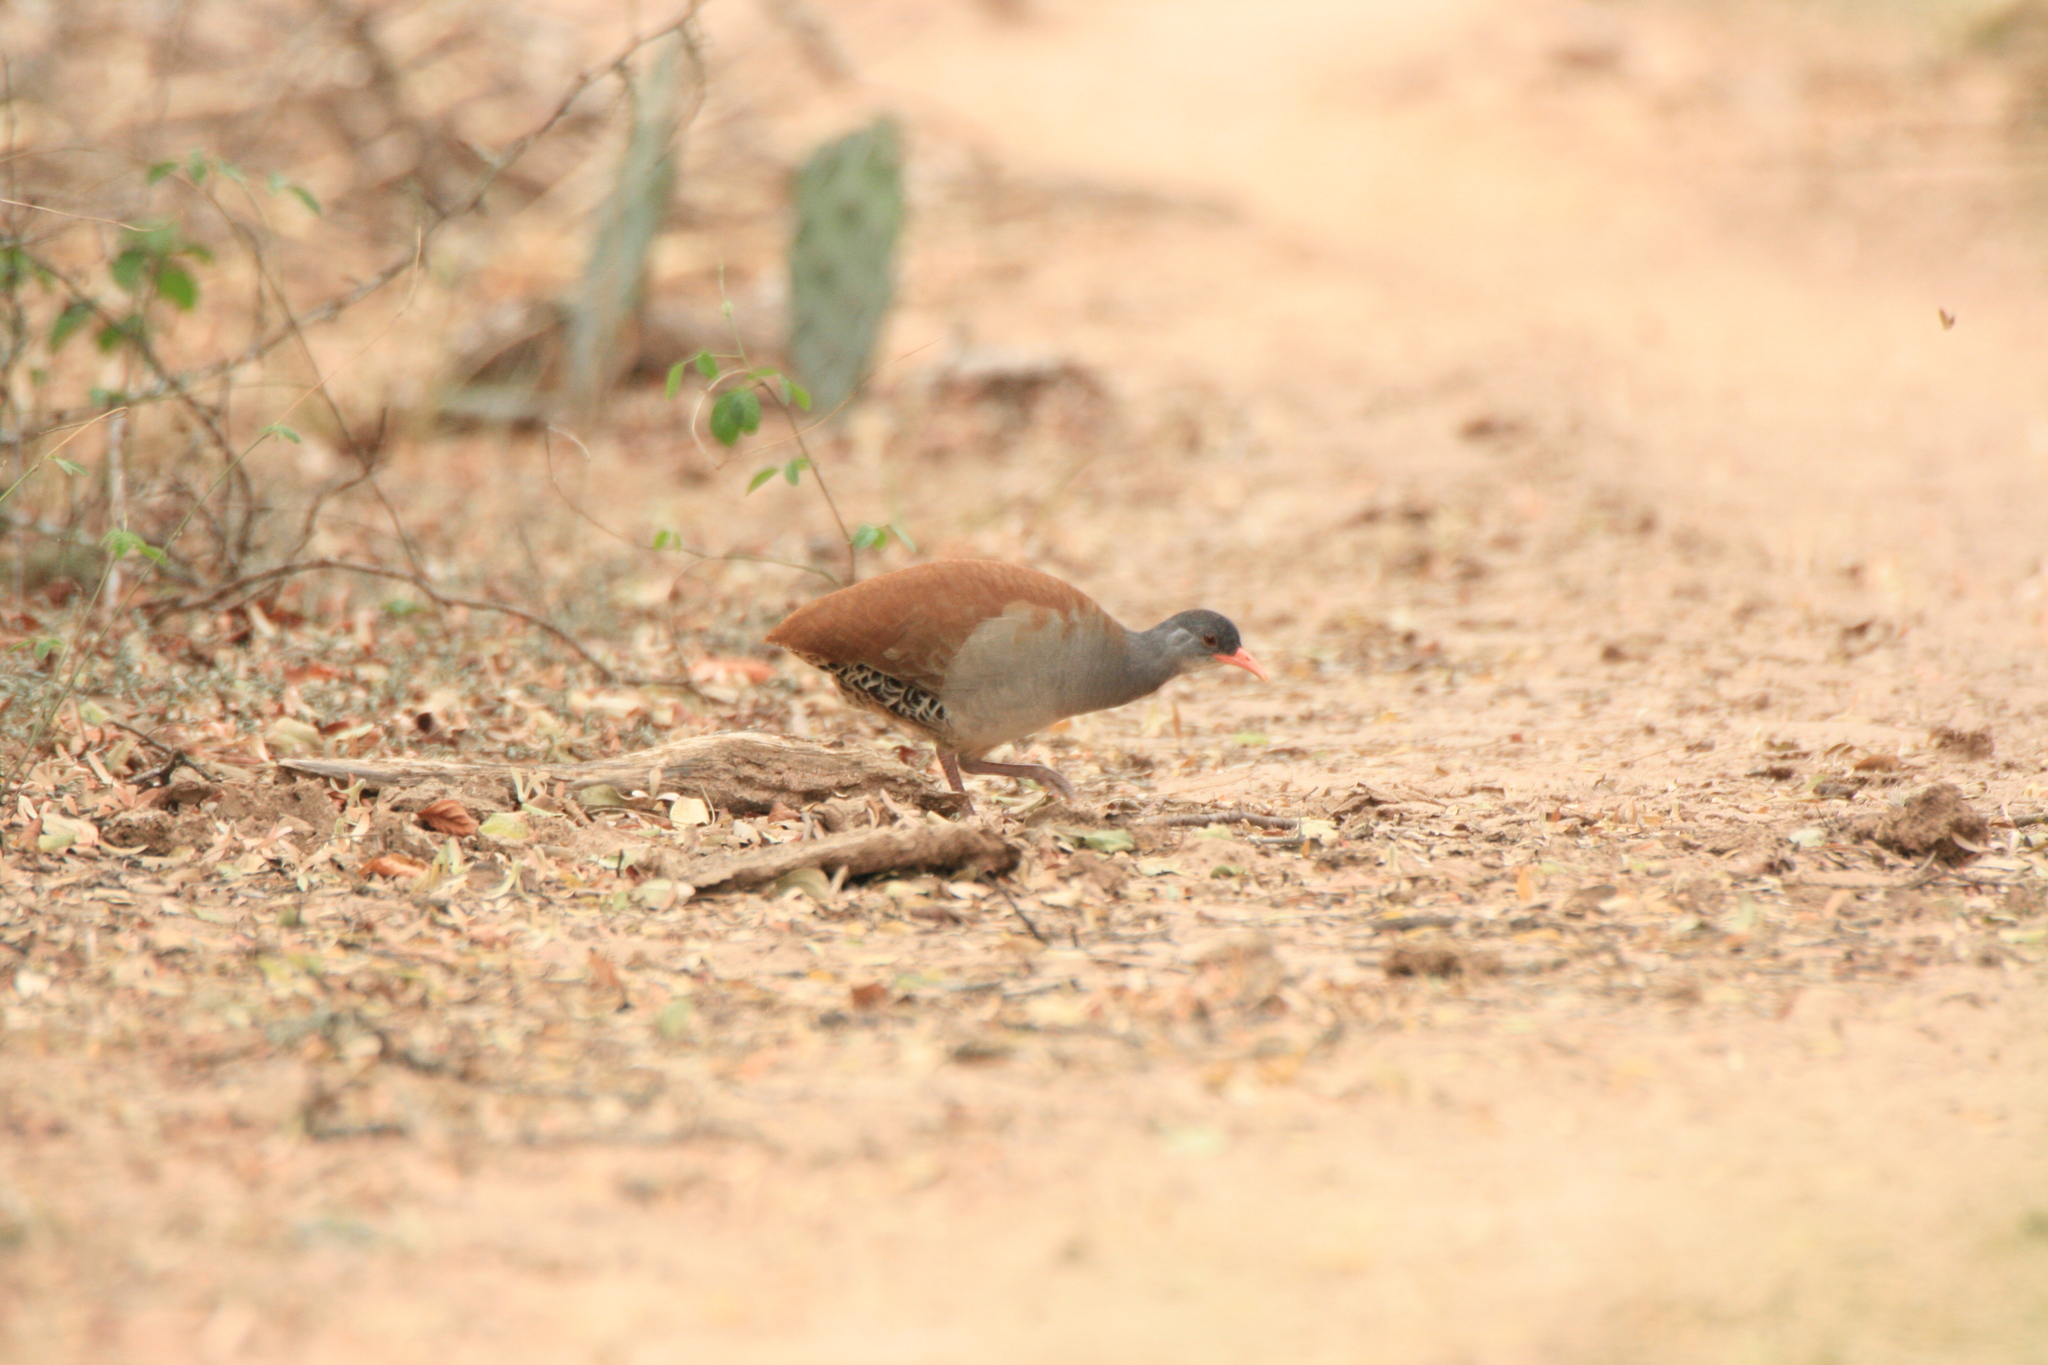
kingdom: Animalia
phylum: Chordata
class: Aves
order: Tinamiformes
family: Tinamidae
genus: Crypturellus
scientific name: Crypturellus tataupa
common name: Tataupa tinamou
